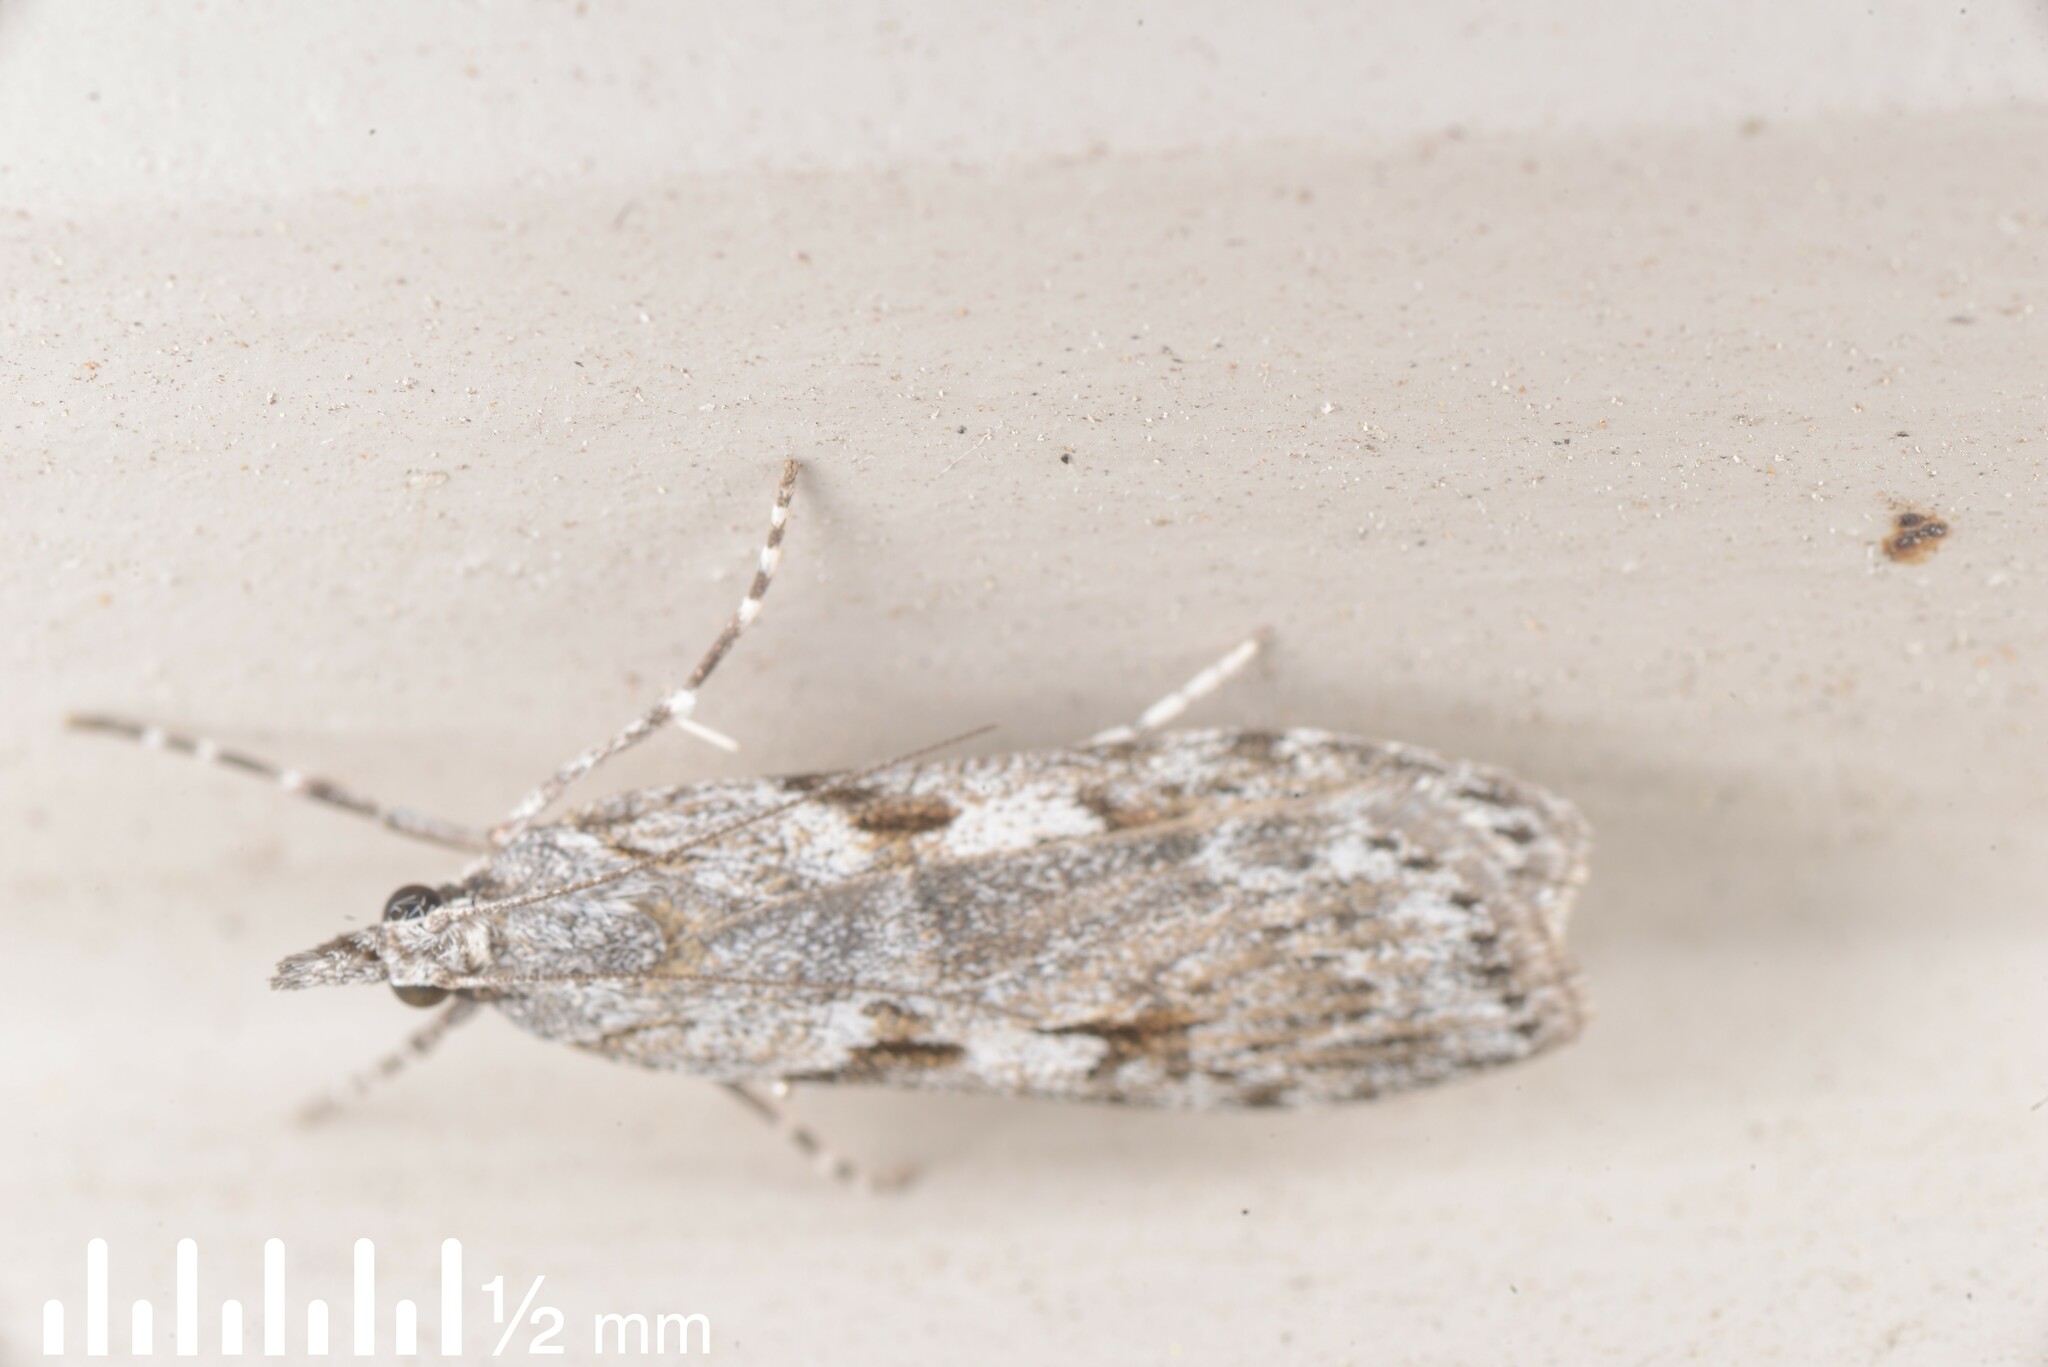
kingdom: Animalia
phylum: Arthropoda
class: Insecta
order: Lepidoptera
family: Crambidae
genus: Scoparia
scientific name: Scoparia halopis
